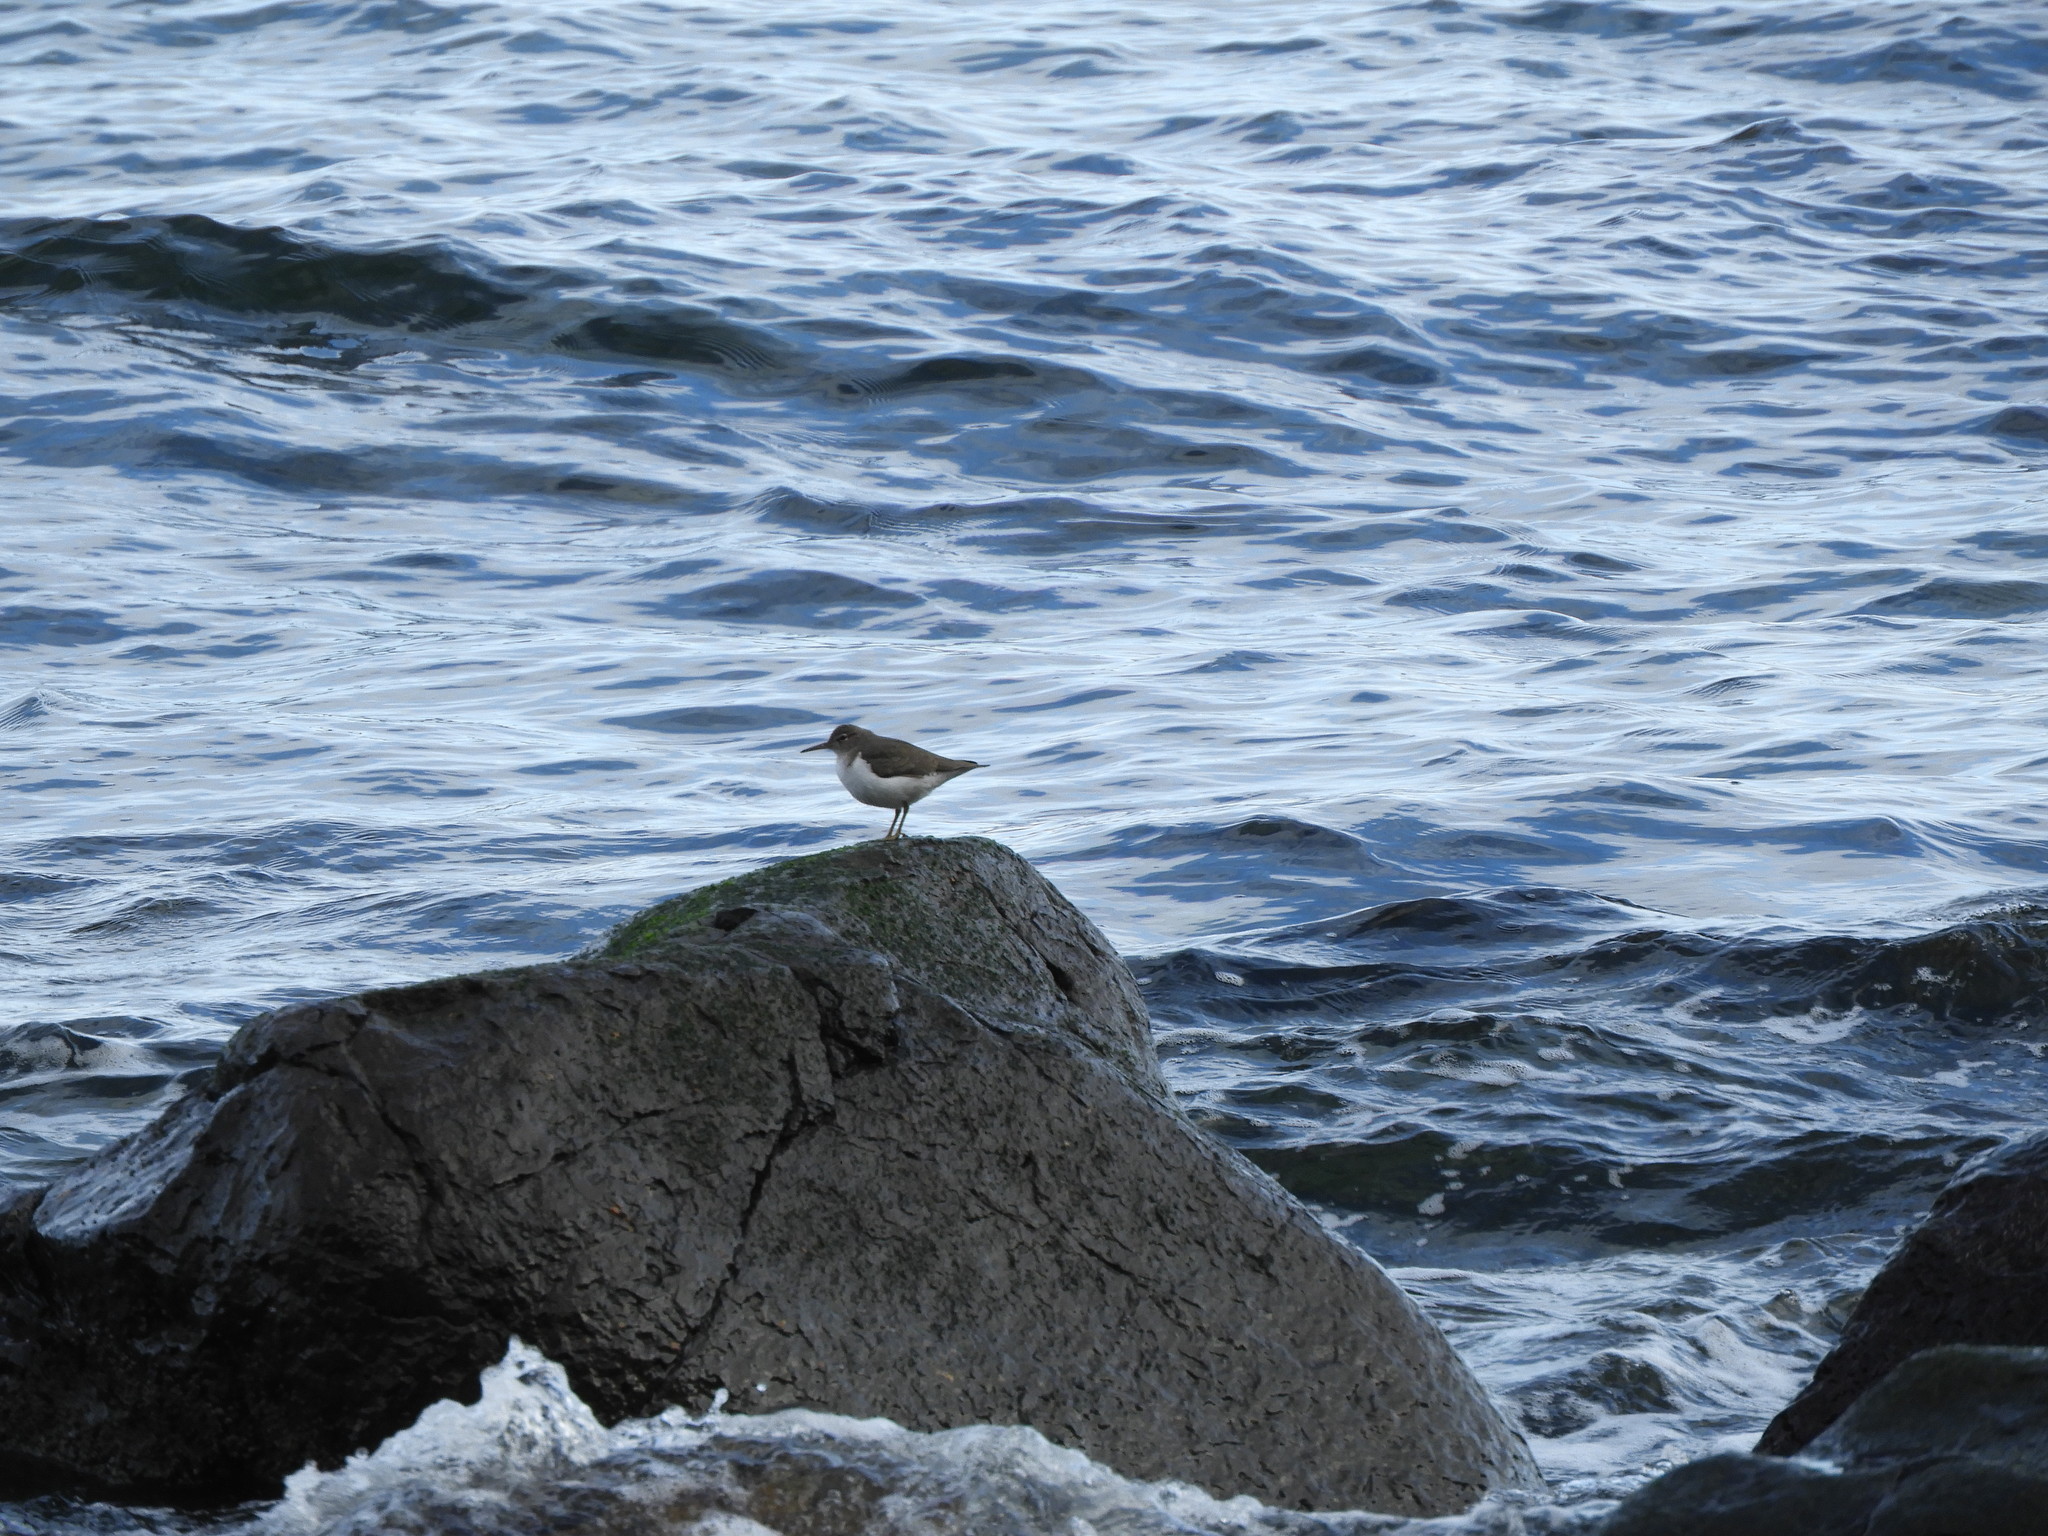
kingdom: Animalia
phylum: Chordata
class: Aves
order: Charadriiformes
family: Scolopacidae
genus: Actitis
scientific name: Actitis macularius
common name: Spotted sandpiper
